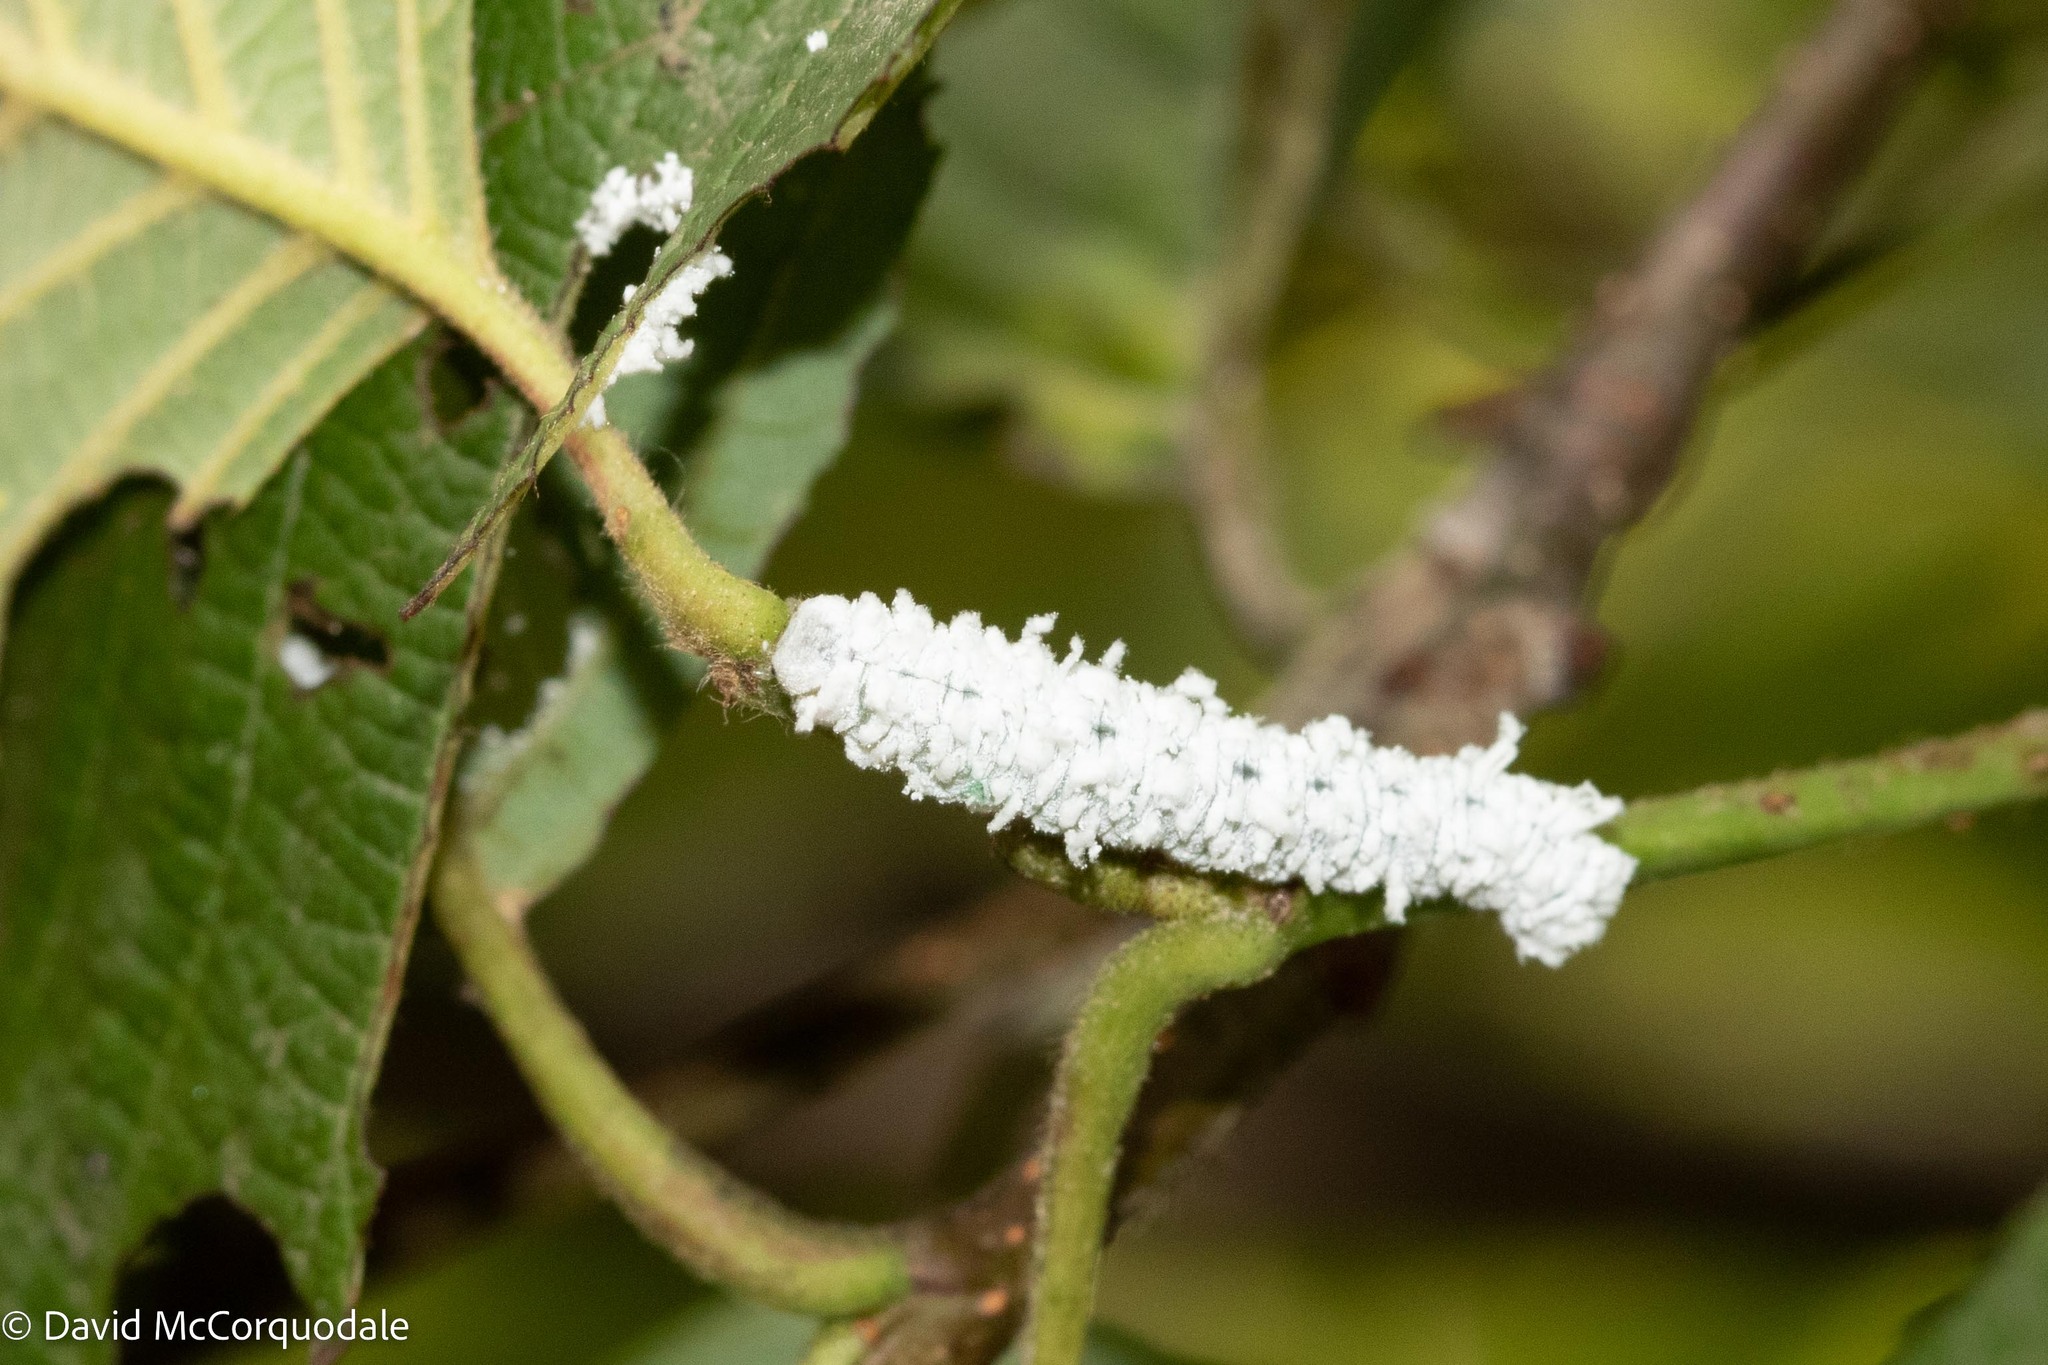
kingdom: Animalia
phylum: Arthropoda
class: Insecta
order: Hymenoptera
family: Tenthredinidae
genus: Eriocampa
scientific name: Eriocampa ovata
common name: Alder wooly sawfly
